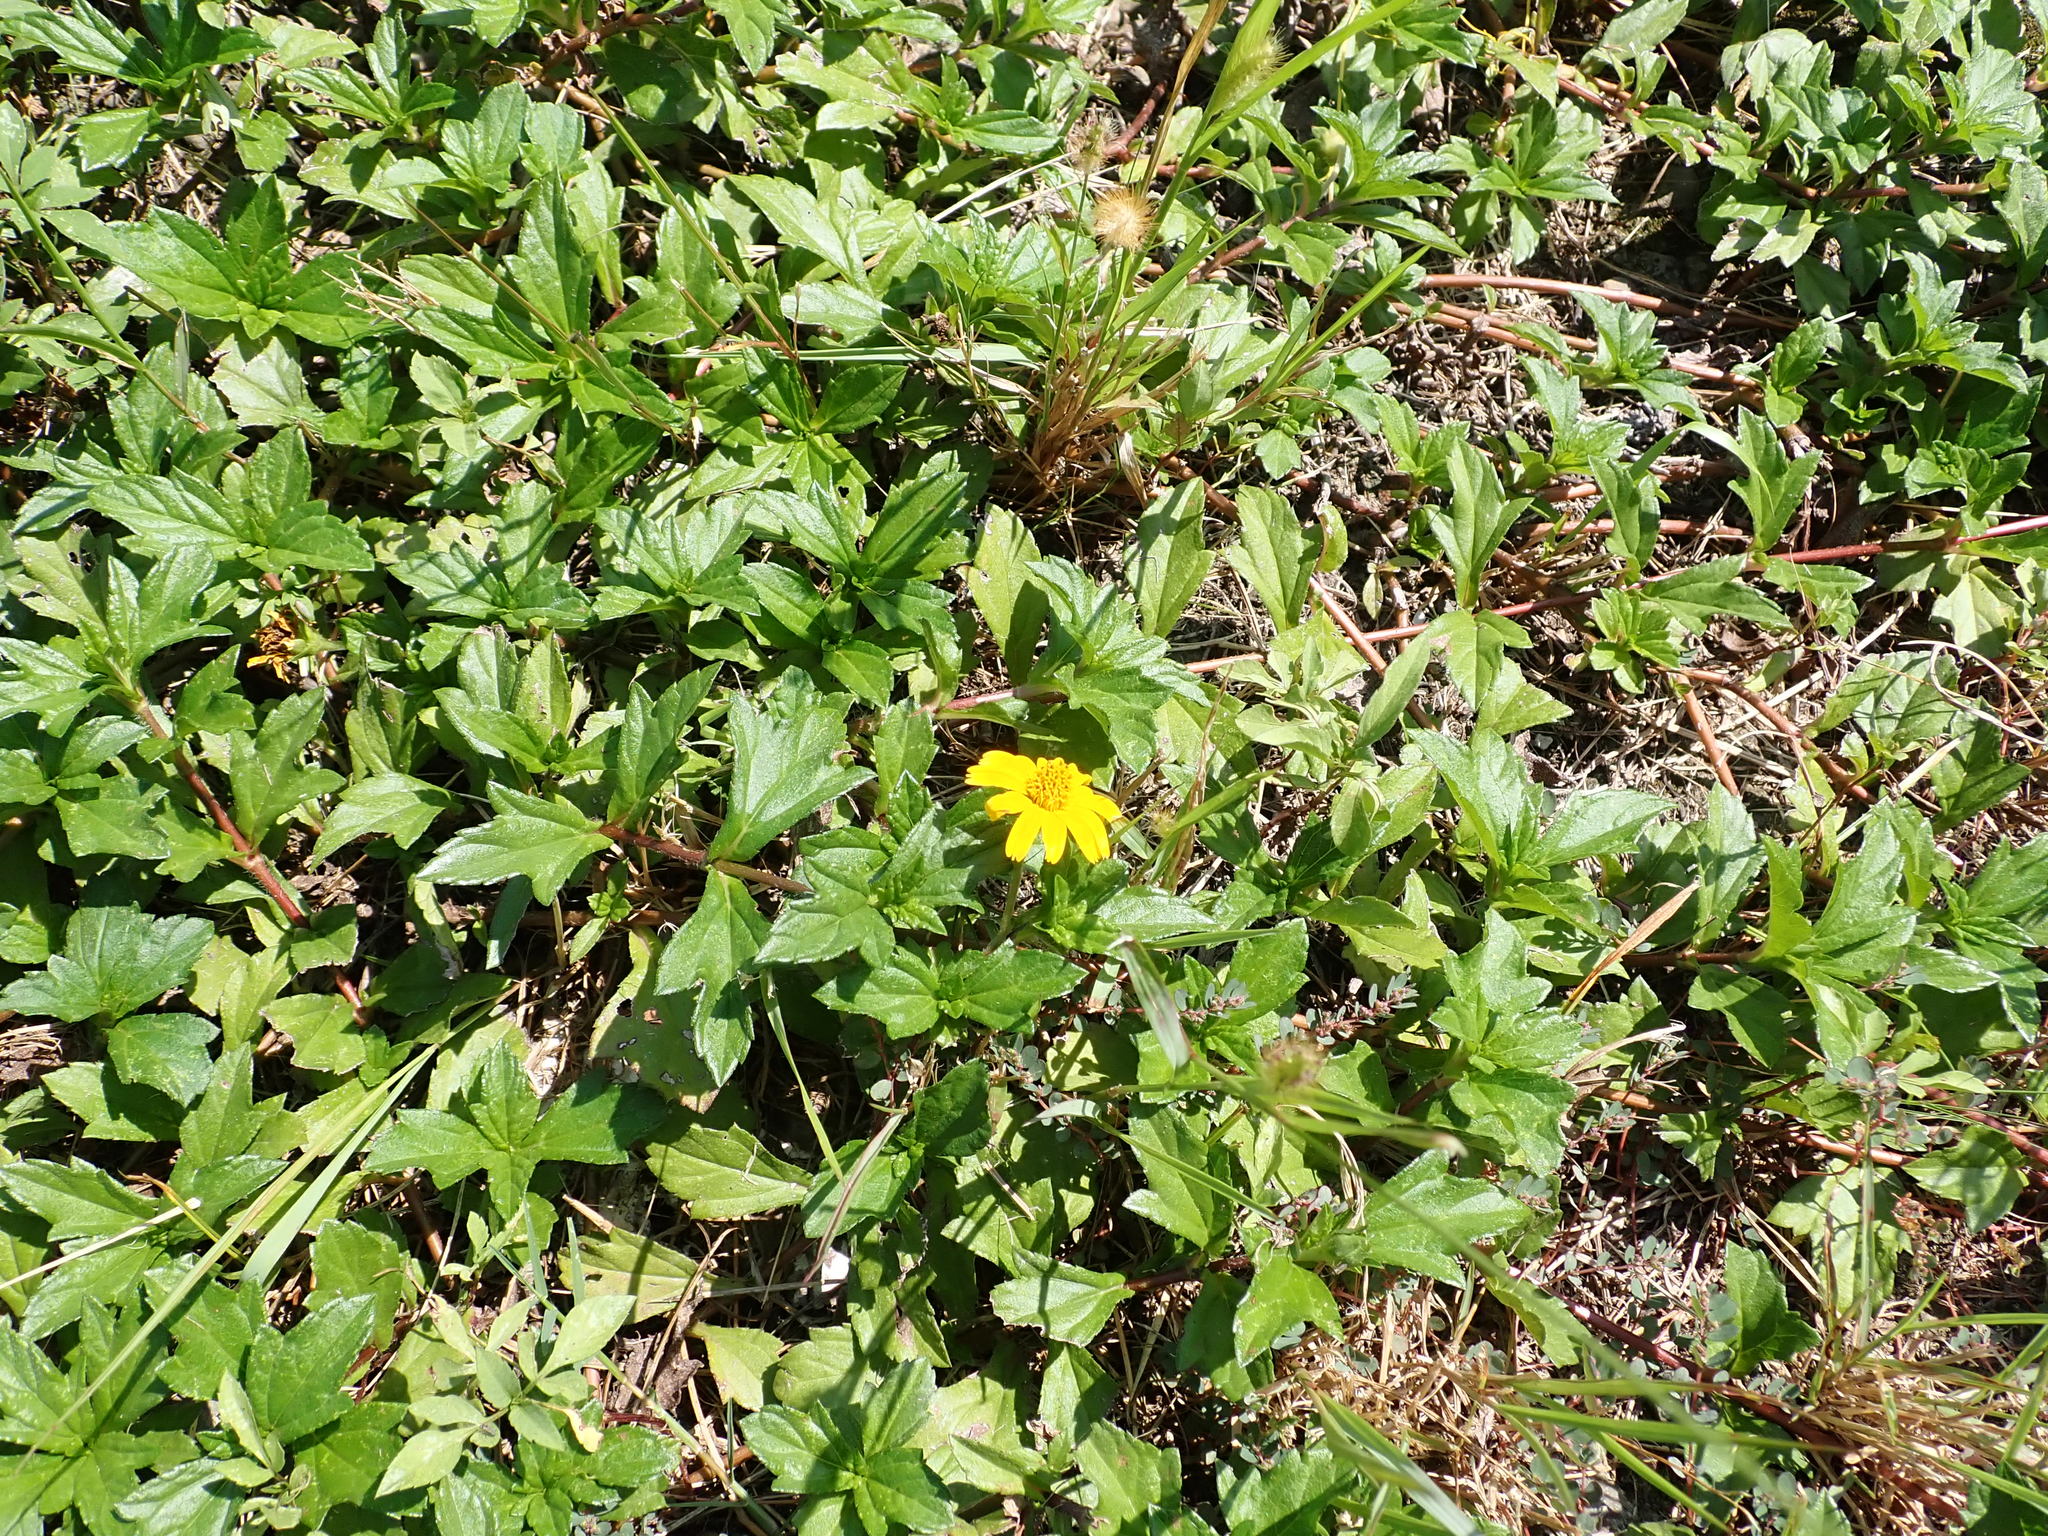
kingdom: Plantae
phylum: Tracheophyta
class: Magnoliopsida
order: Asterales
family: Asteraceae
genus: Sphagneticola
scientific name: Sphagneticola trilobata
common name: Bay biscayne creeping-oxeye
